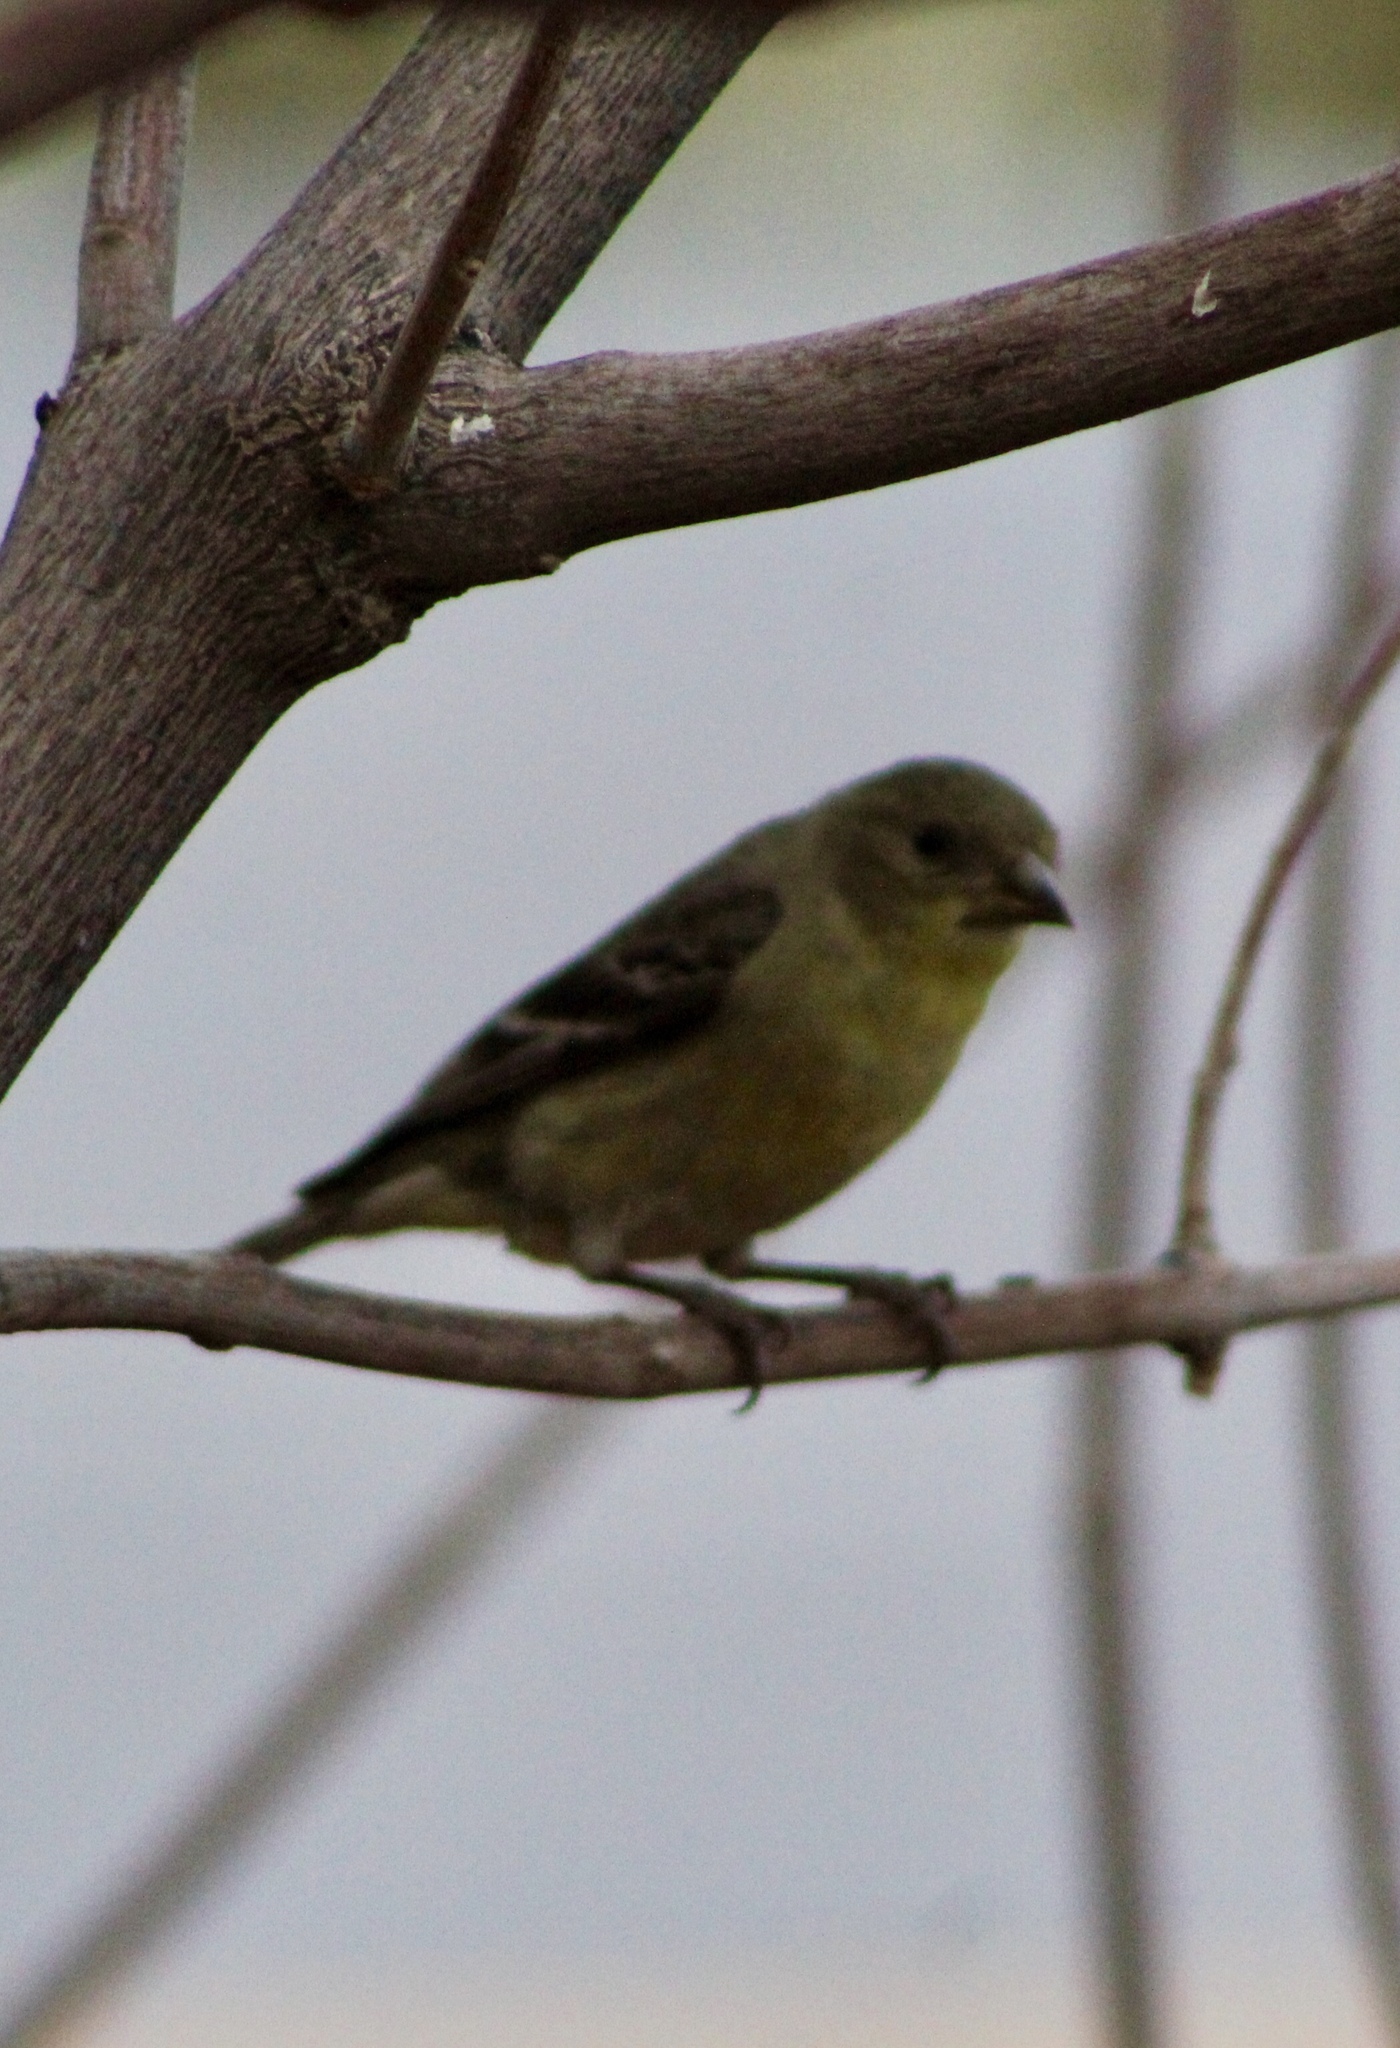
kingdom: Animalia
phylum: Chordata
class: Aves
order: Passeriformes
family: Fringillidae
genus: Spinus
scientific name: Spinus psaltria
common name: Lesser goldfinch
